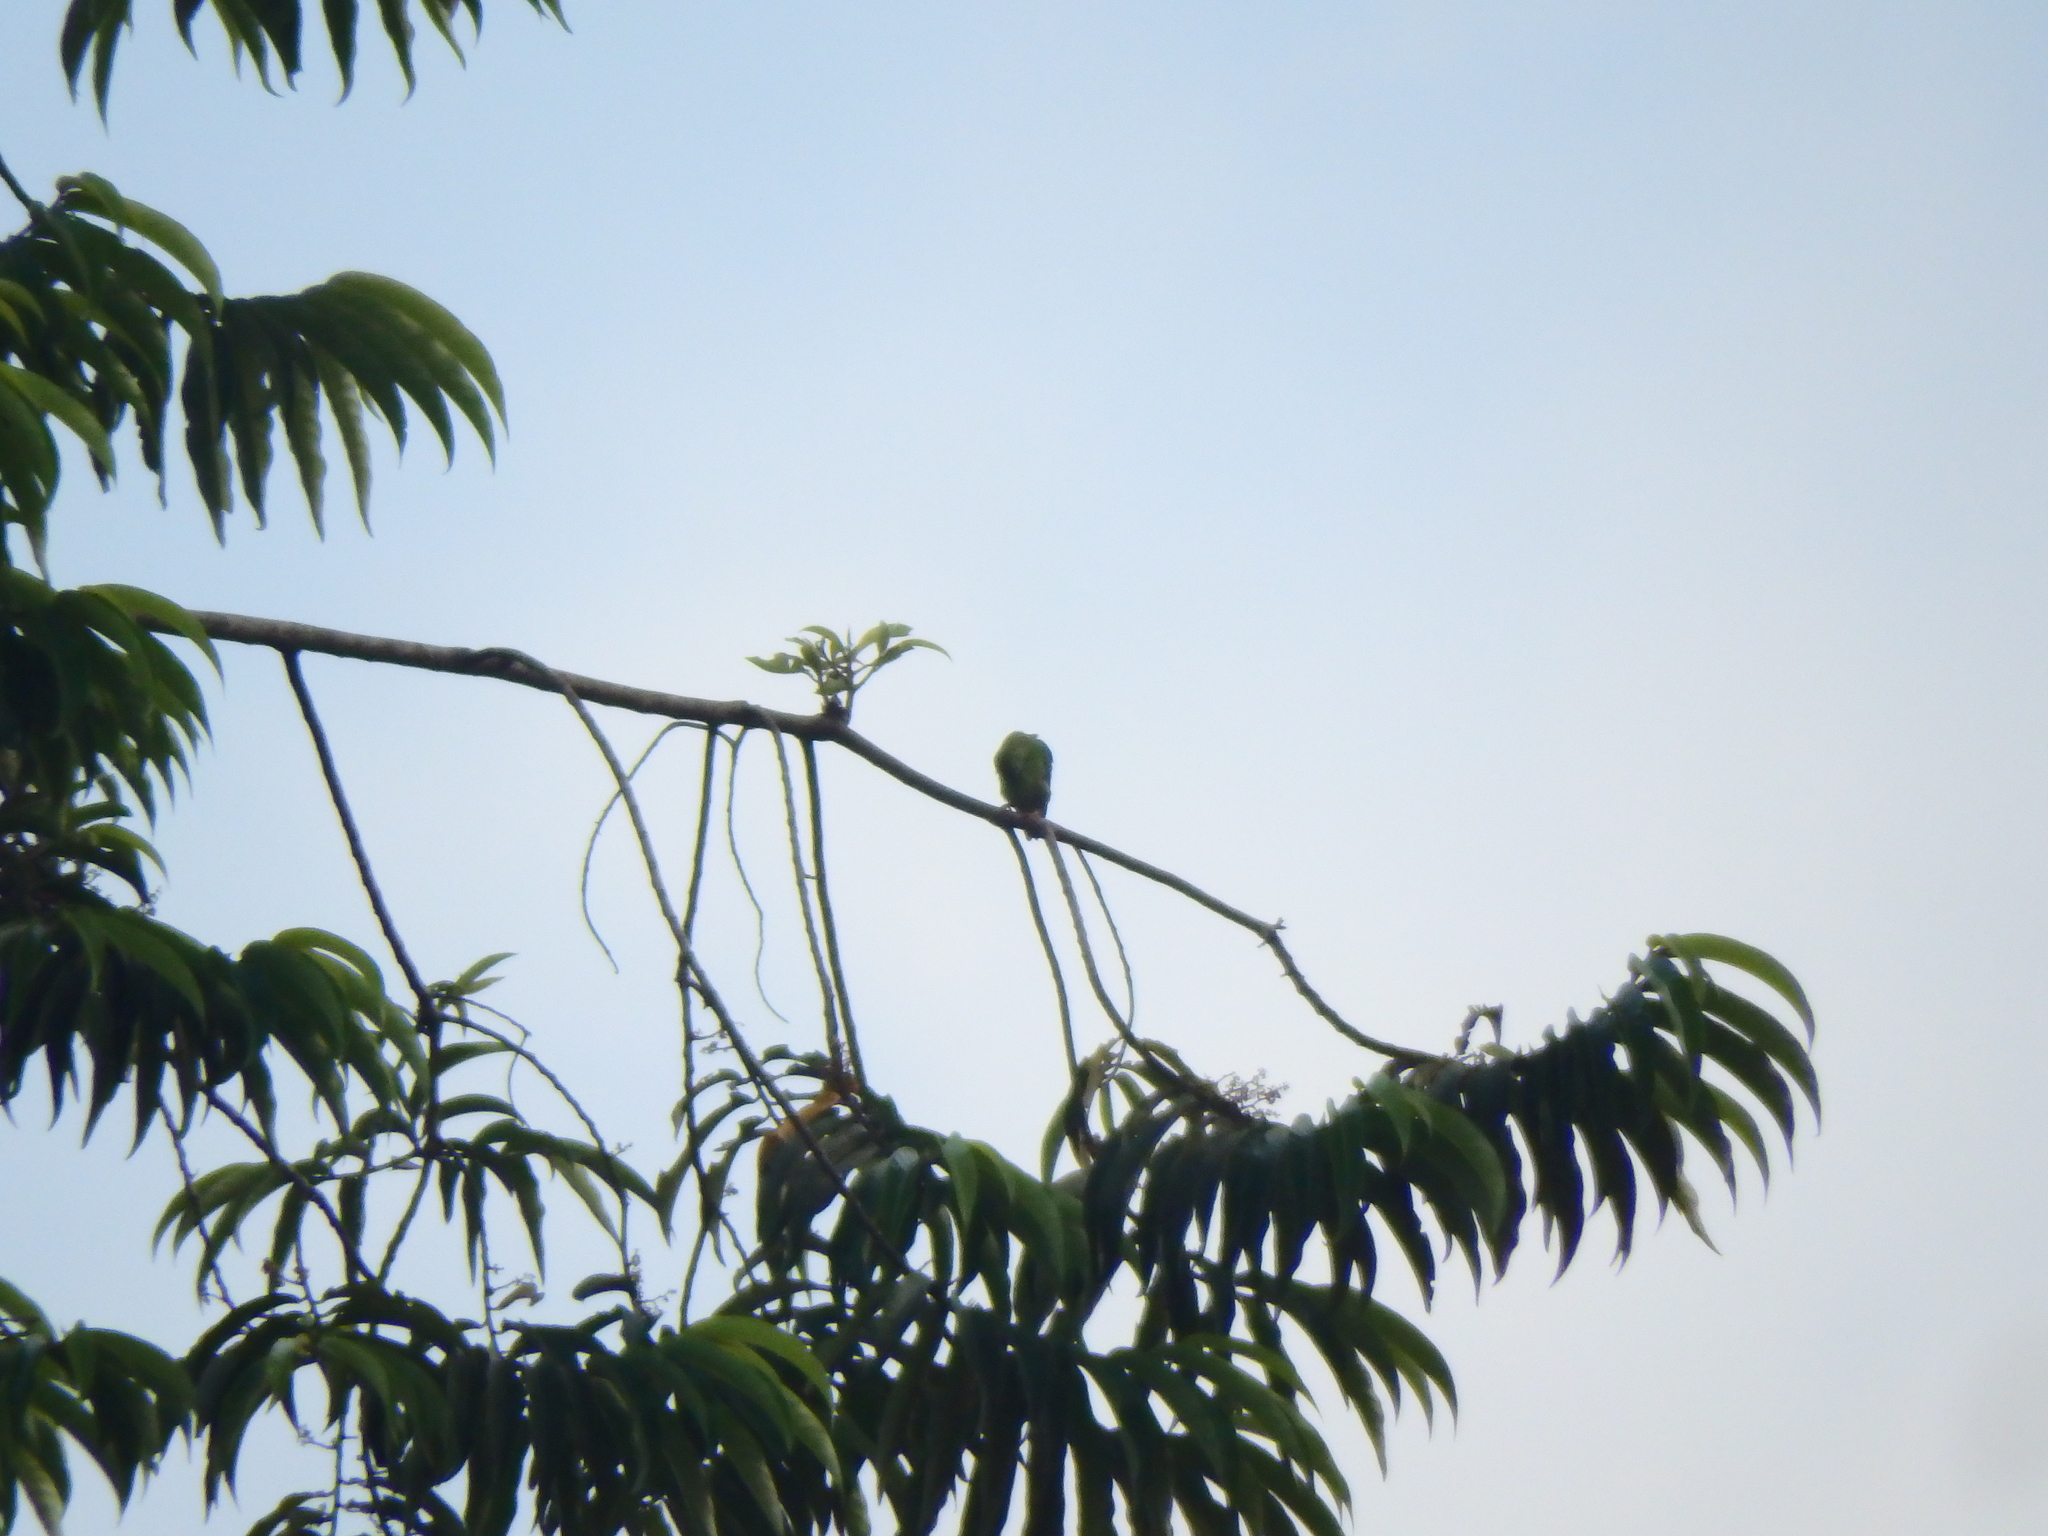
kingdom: Animalia
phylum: Chordata
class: Aves
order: Psittaciformes
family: Psittacidae
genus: Psittacula
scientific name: Psittacula krameri
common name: Rose-ringed parakeet
